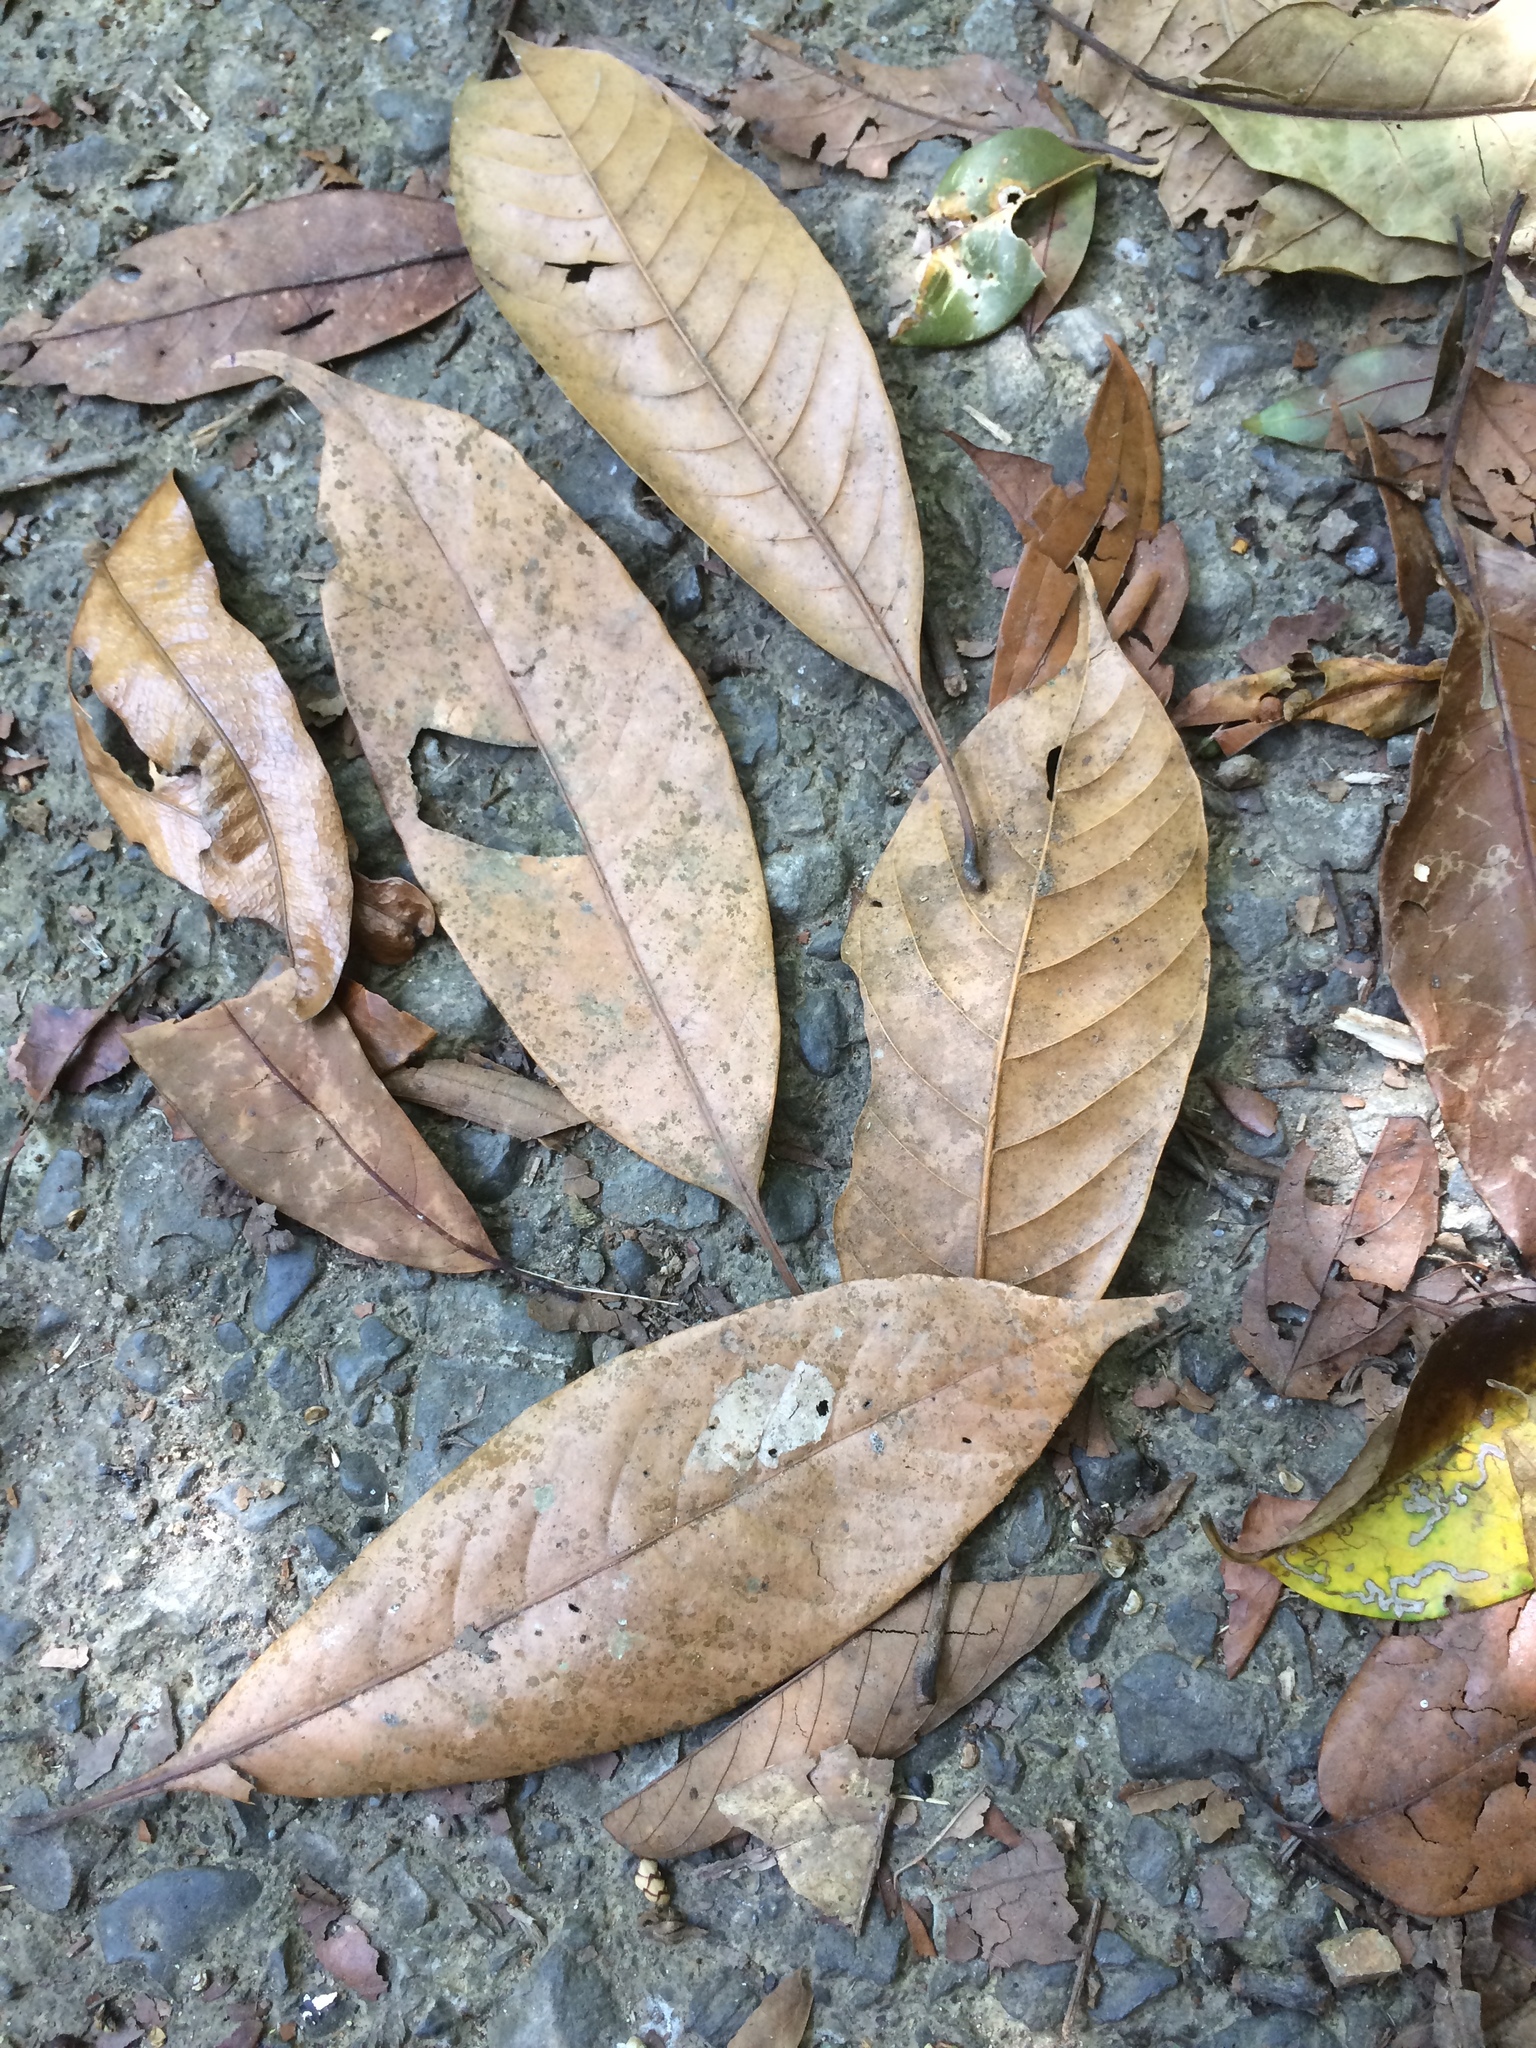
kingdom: Plantae
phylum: Tracheophyta
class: Magnoliopsida
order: Fagales
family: Fagaceae
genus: Lithocarpus
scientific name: Lithocarpus brevicaudatus
